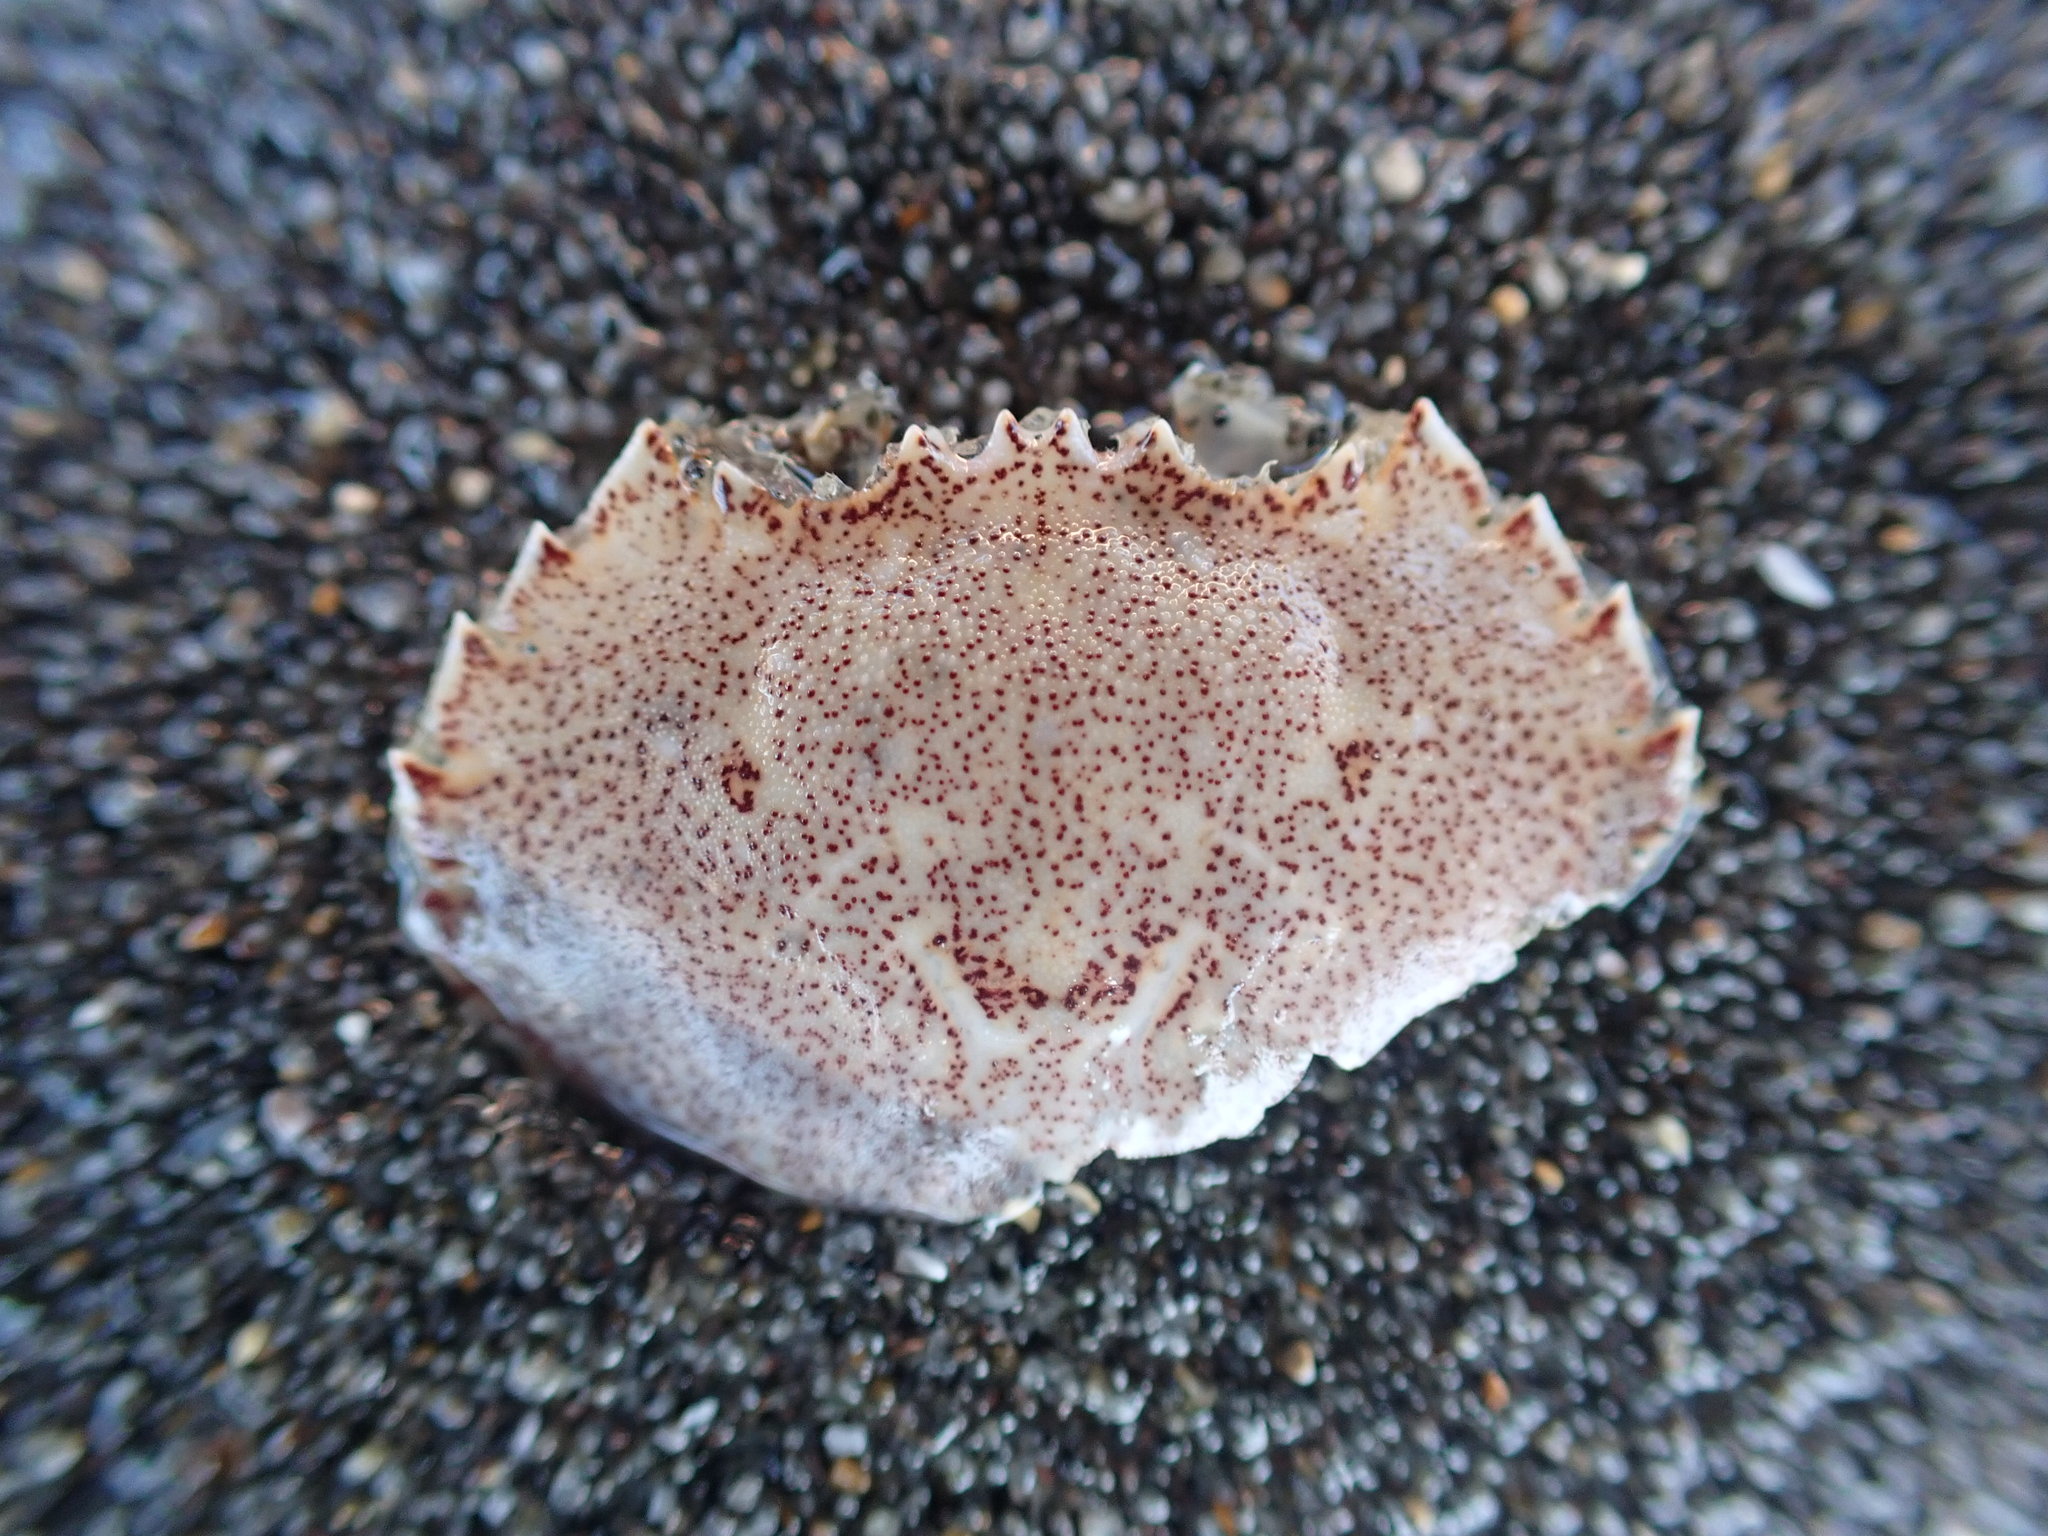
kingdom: Animalia
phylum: Arthropoda
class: Malacostraca
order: Decapoda
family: Ovalipidae
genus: Ovalipes
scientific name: Ovalipes catharus
